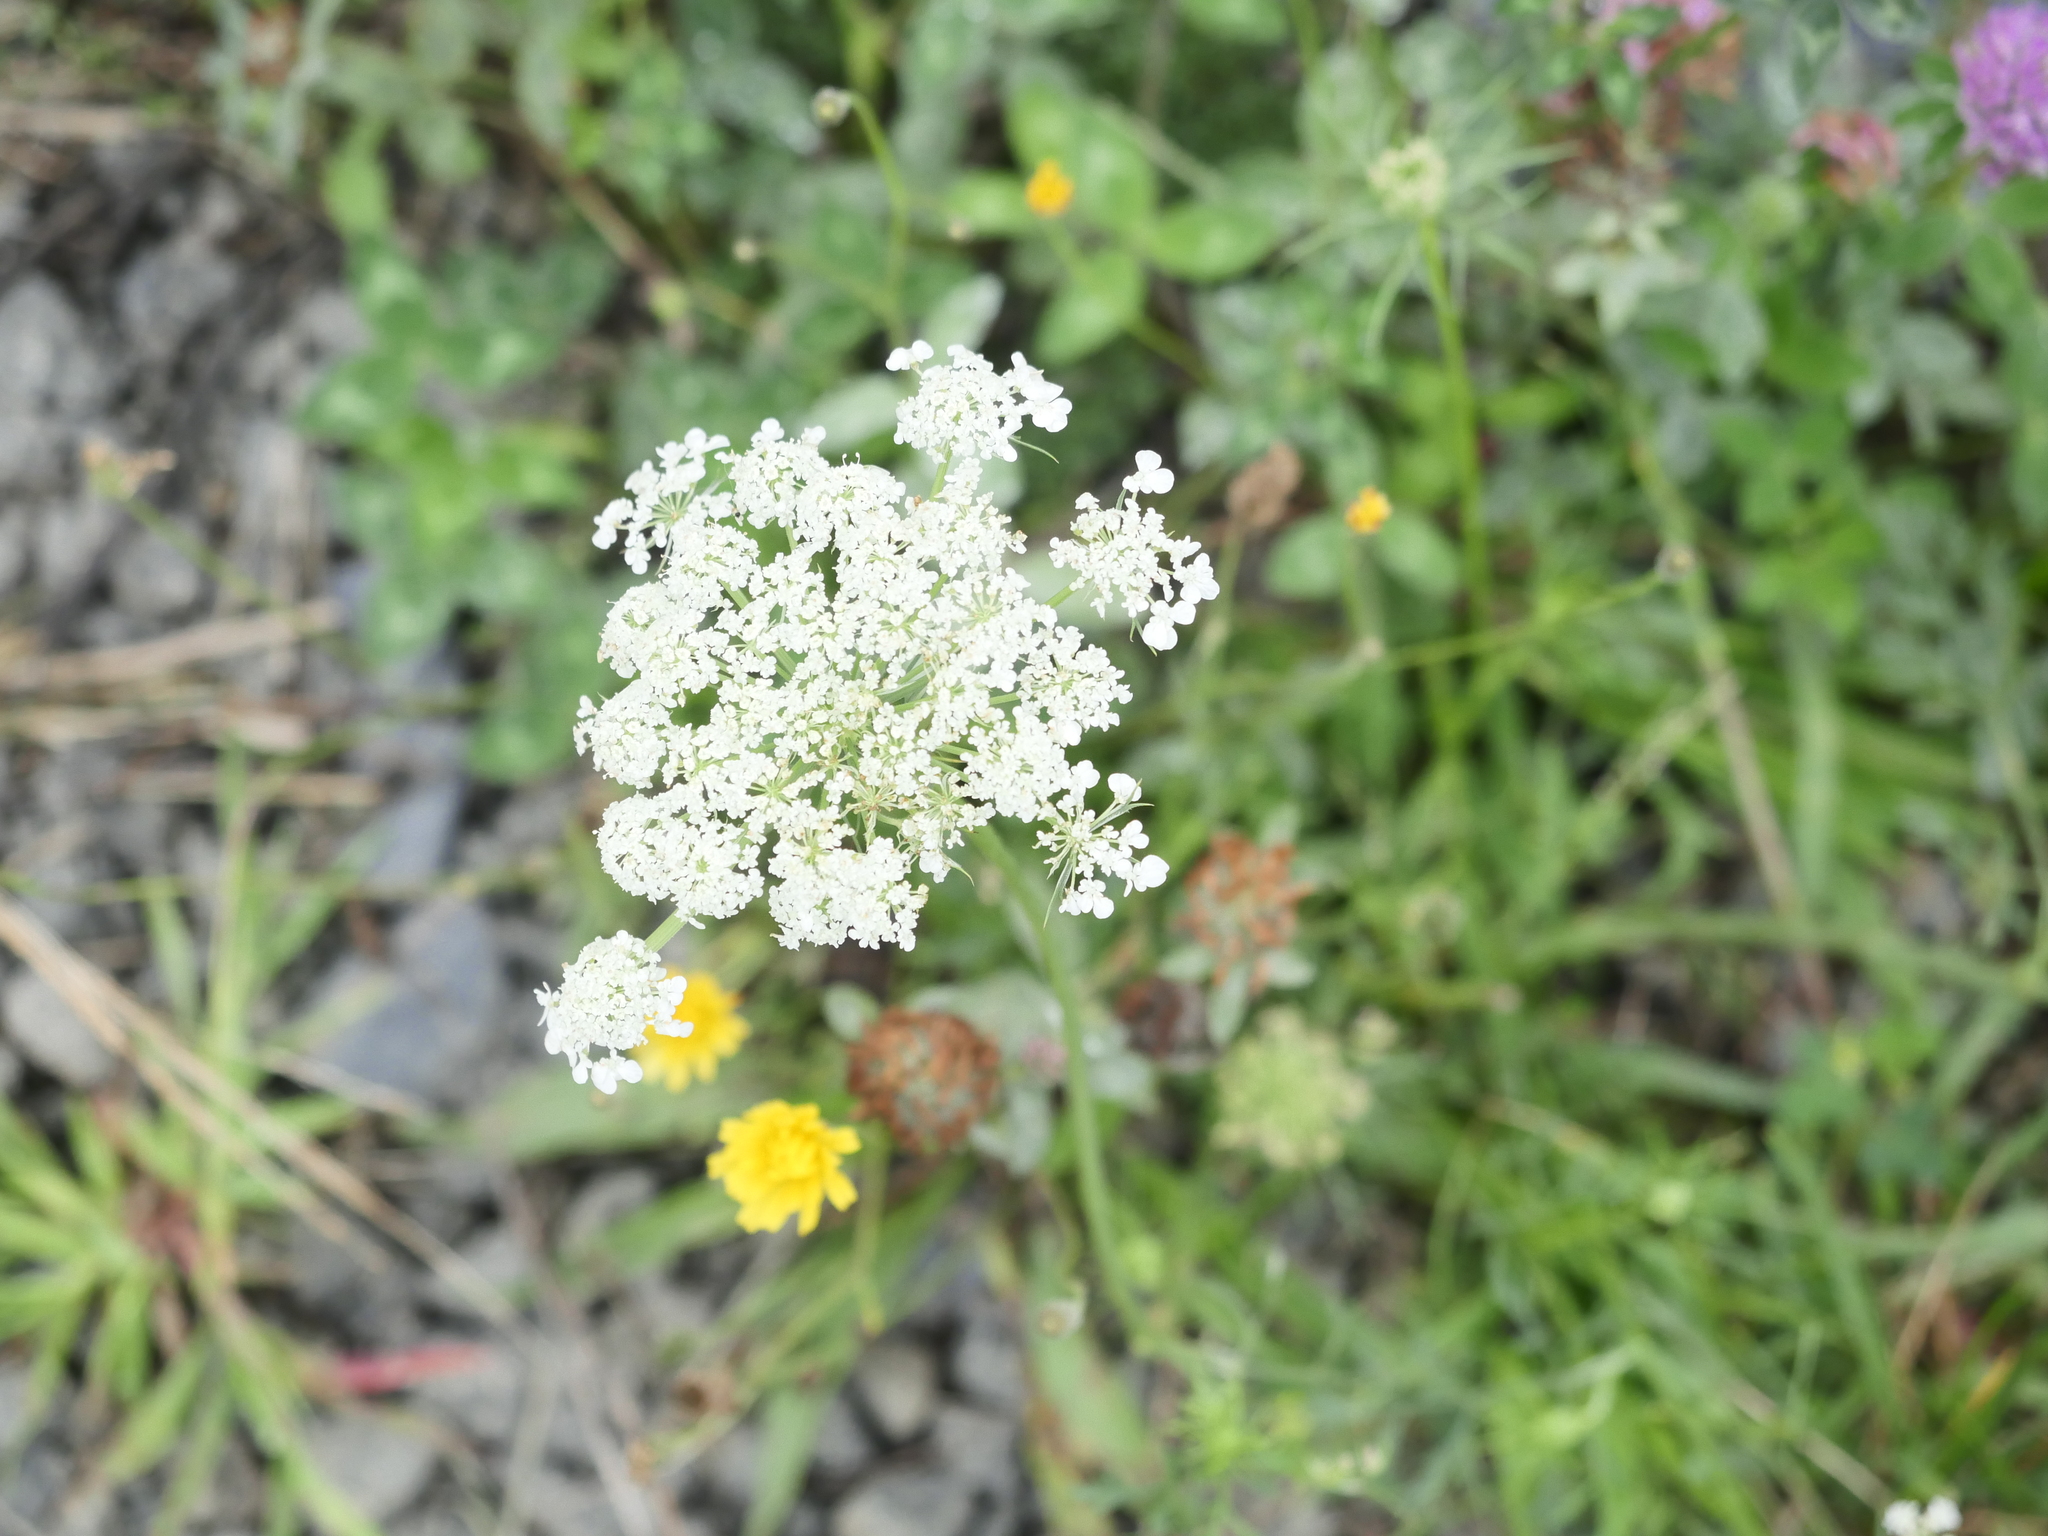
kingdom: Plantae
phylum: Tracheophyta
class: Magnoliopsida
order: Apiales
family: Apiaceae
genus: Daucus
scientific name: Daucus carota
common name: Wild carrot
